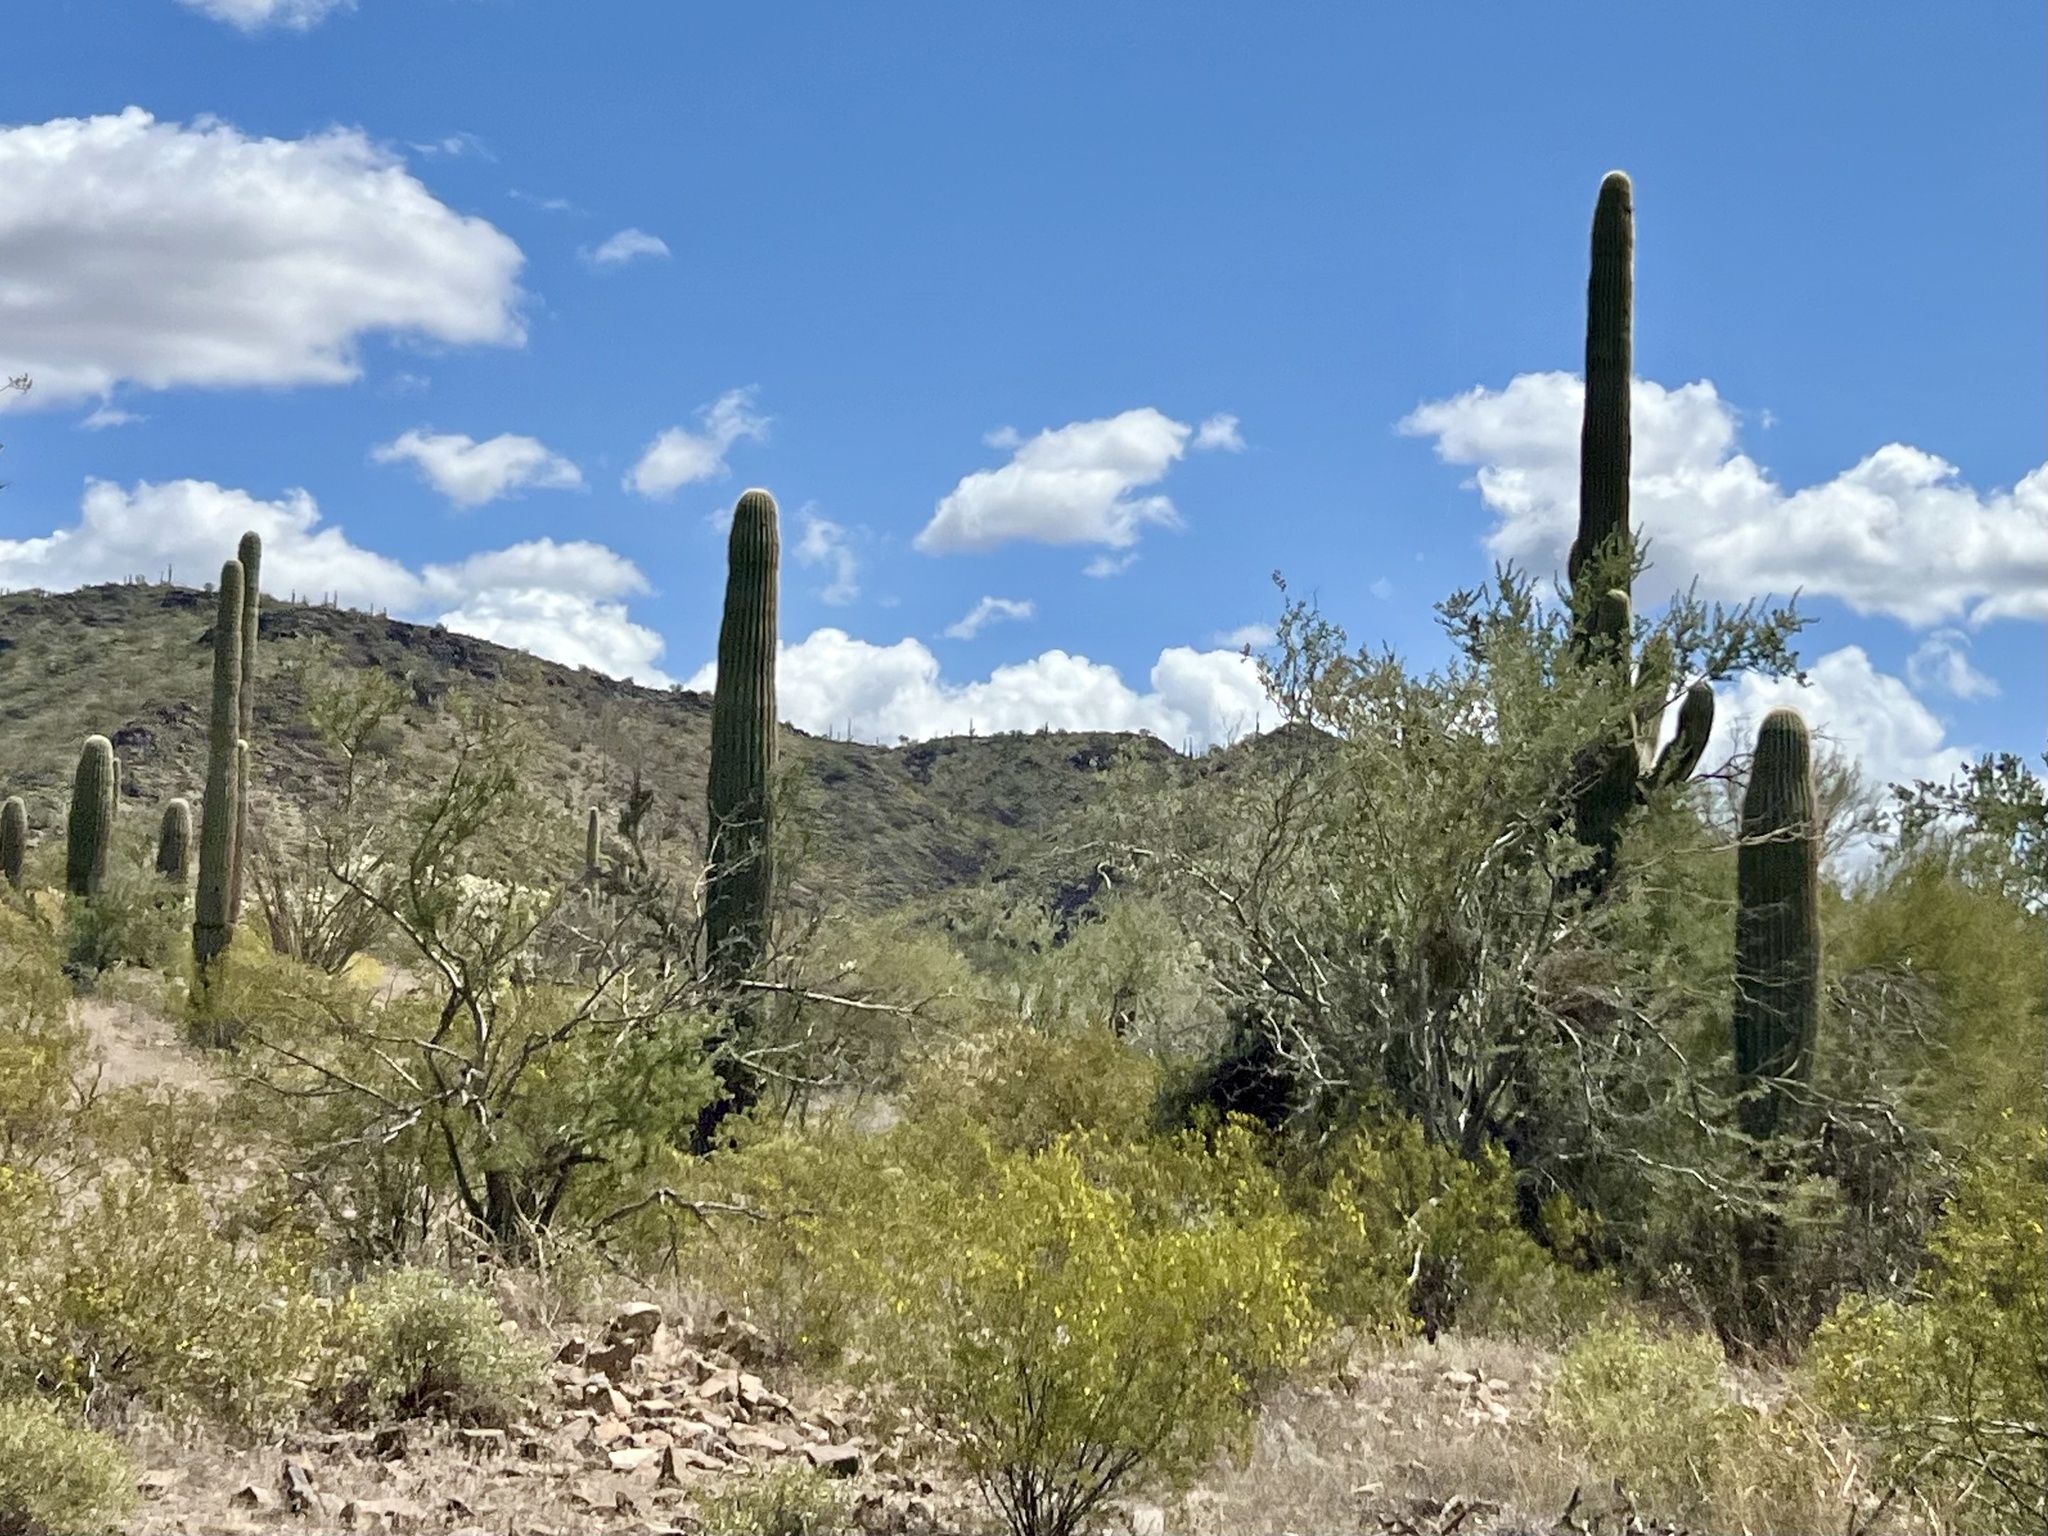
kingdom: Plantae
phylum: Tracheophyta
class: Magnoliopsida
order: Caryophyllales
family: Cactaceae
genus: Carnegiea
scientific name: Carnegiea gigantea
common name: Saguaro
